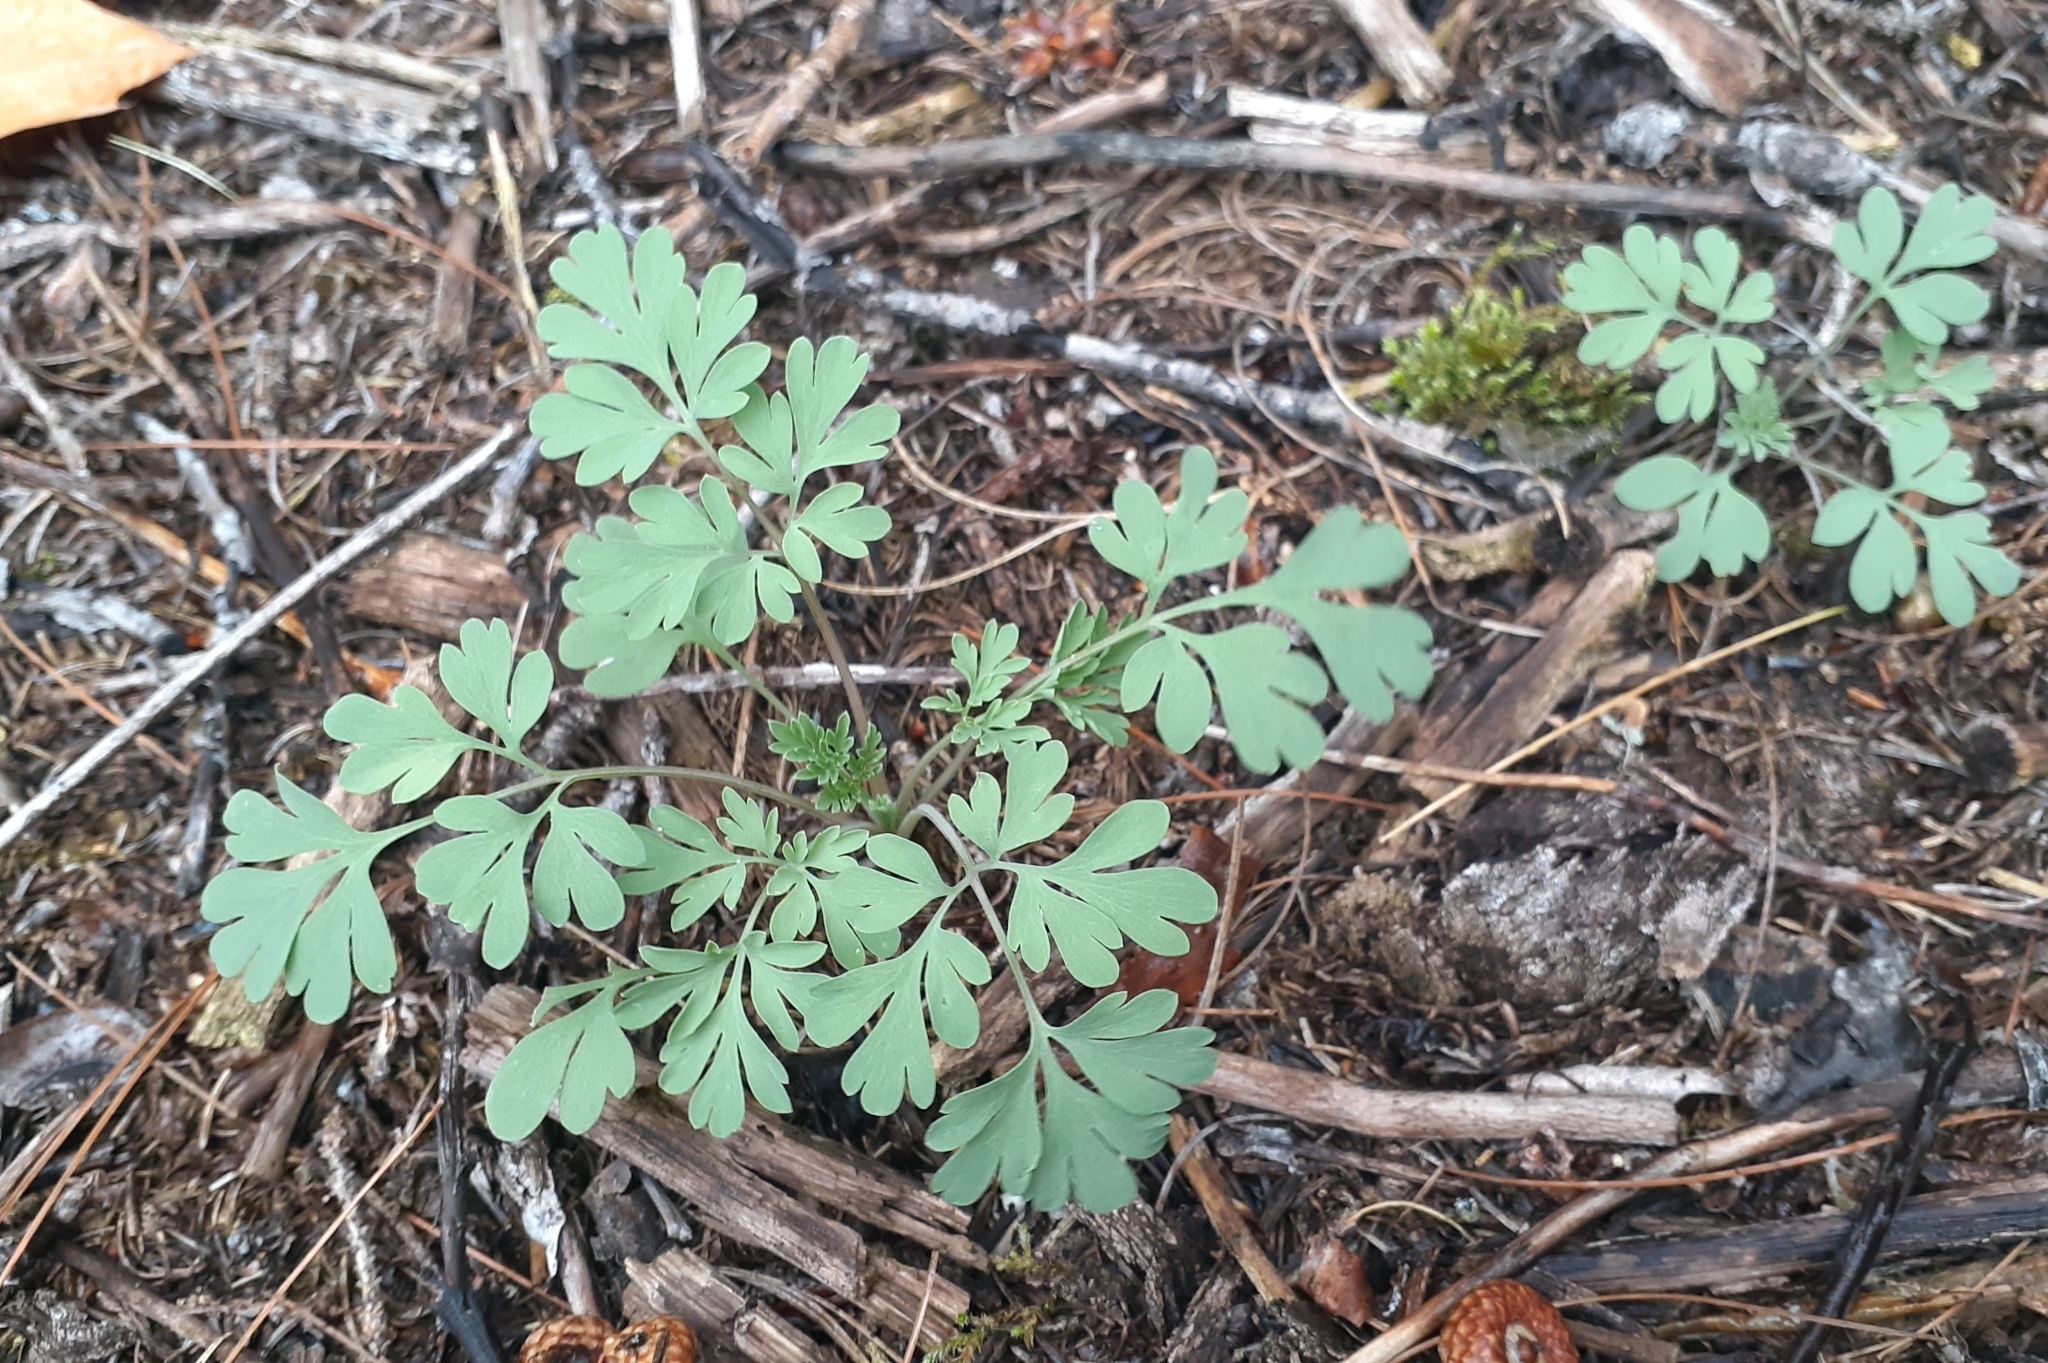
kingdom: Plantae
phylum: Tracheophyta
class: Magnoliopsida
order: Ranunculales
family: Papaveraceae
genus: Capnoides
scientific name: Capnoides sempervirens
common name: Rock harlequin
